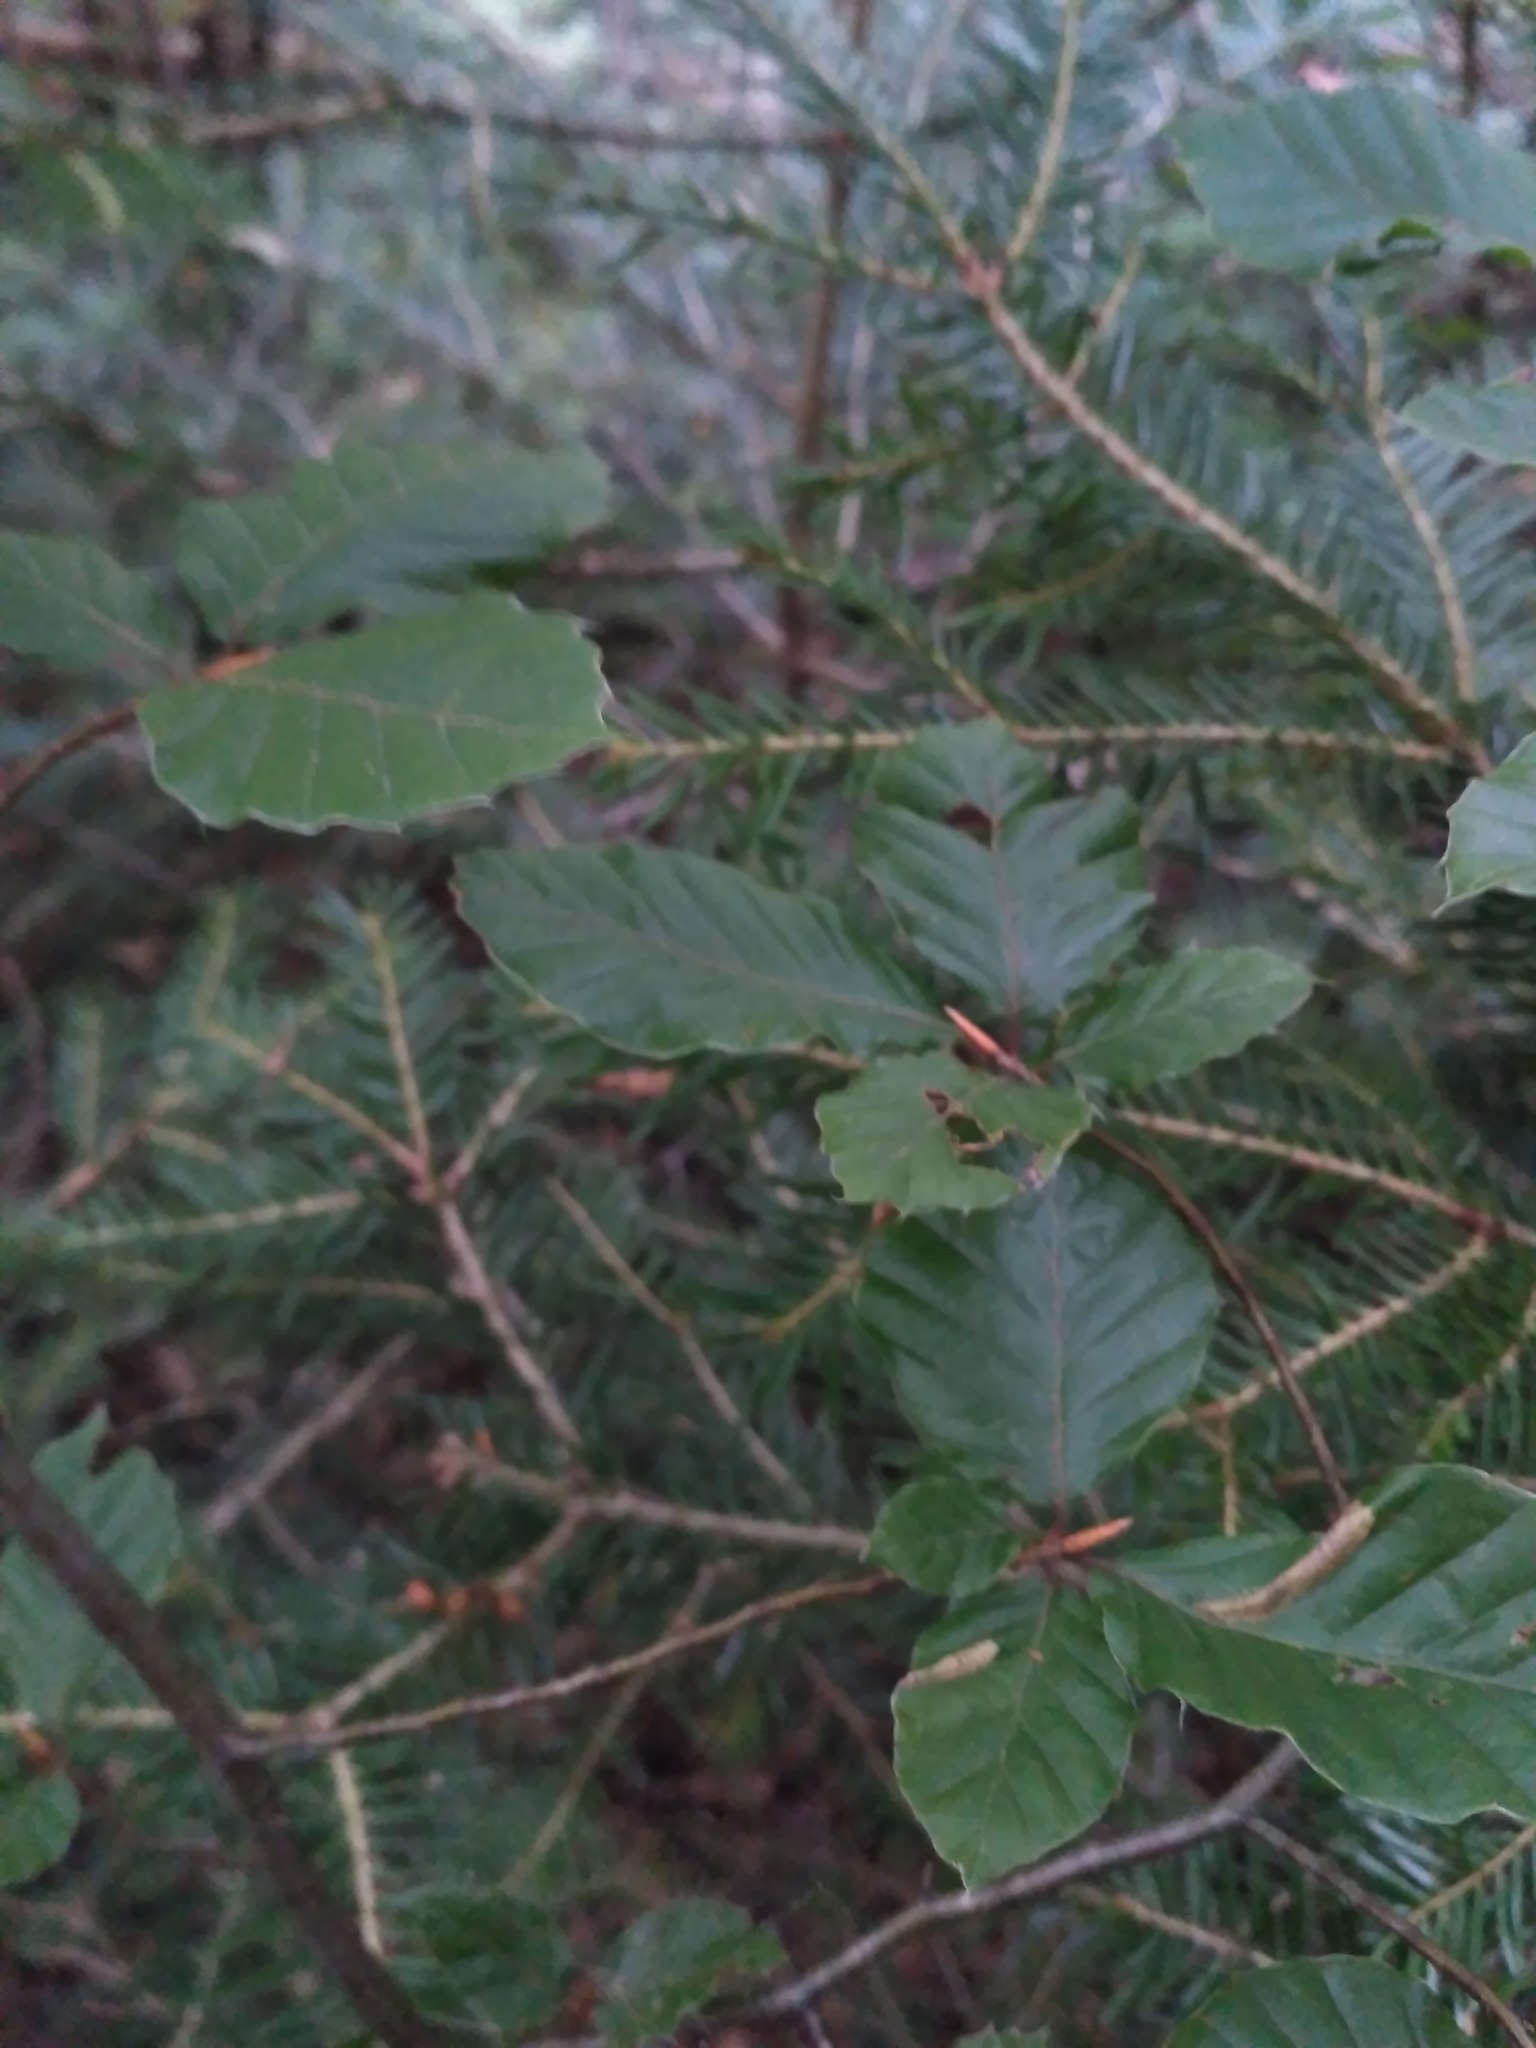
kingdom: Plantae
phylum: Tracheophyta
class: Magnoliopsida
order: Fagales
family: Fagaceae
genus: Fagus
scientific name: Fagus sylvatica
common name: Beech
